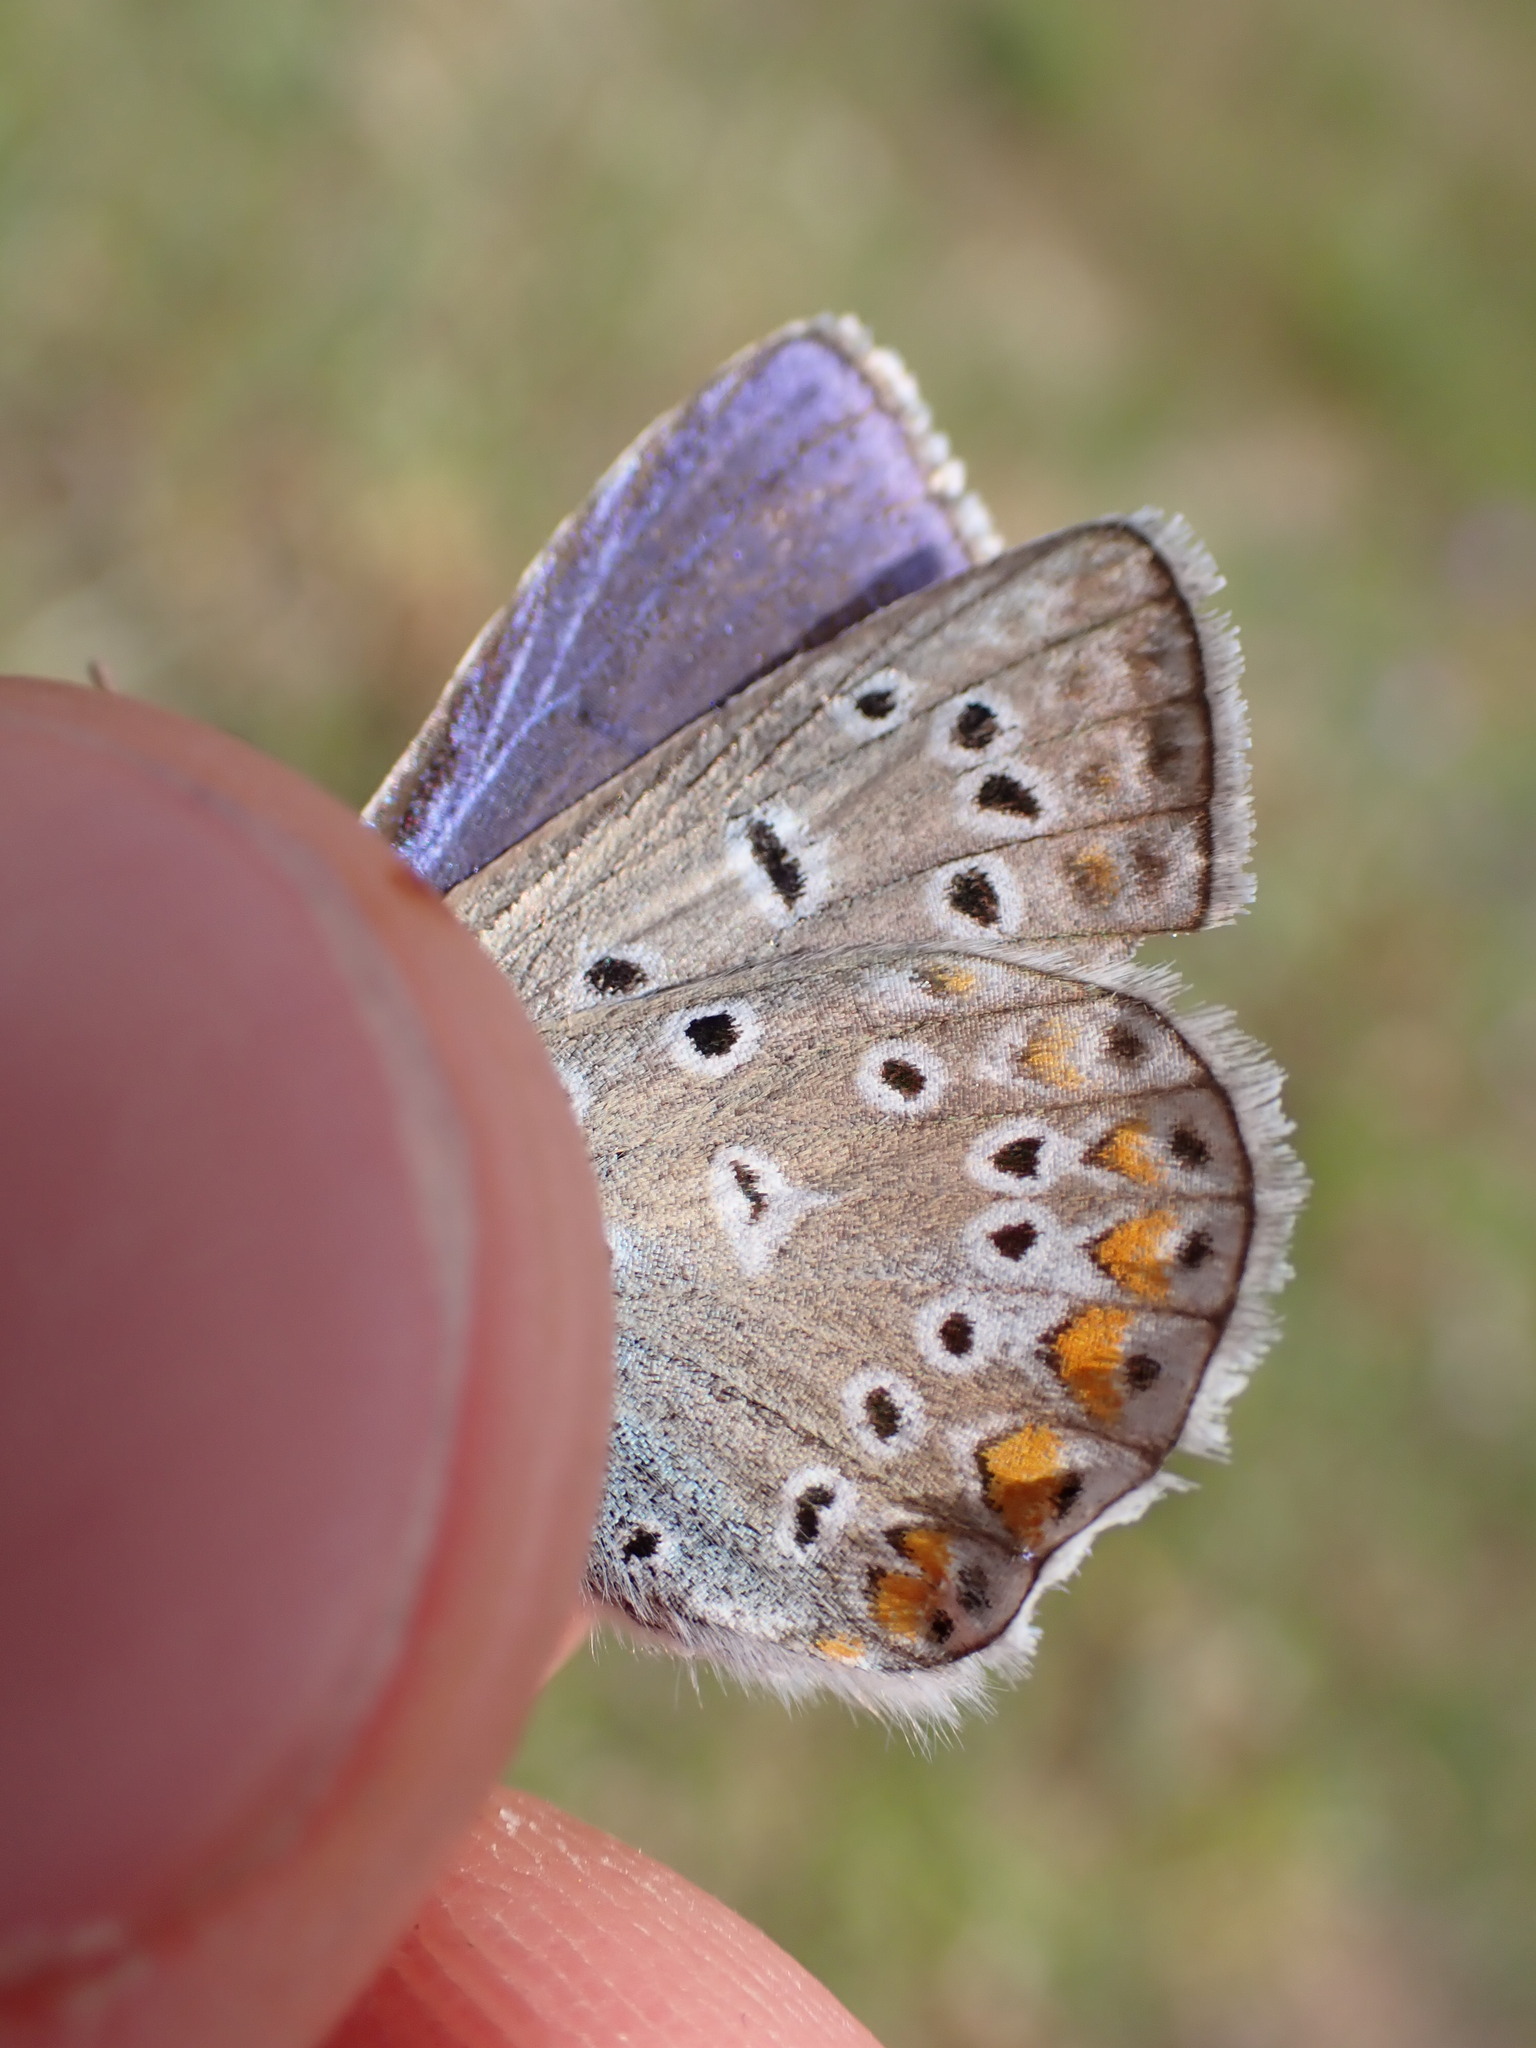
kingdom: Animalia
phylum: Arthropoda
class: Insecta
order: Lepidoptera
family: Lycaenidae
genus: Polyommatus
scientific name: Polyommatus icarus
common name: Common blue
